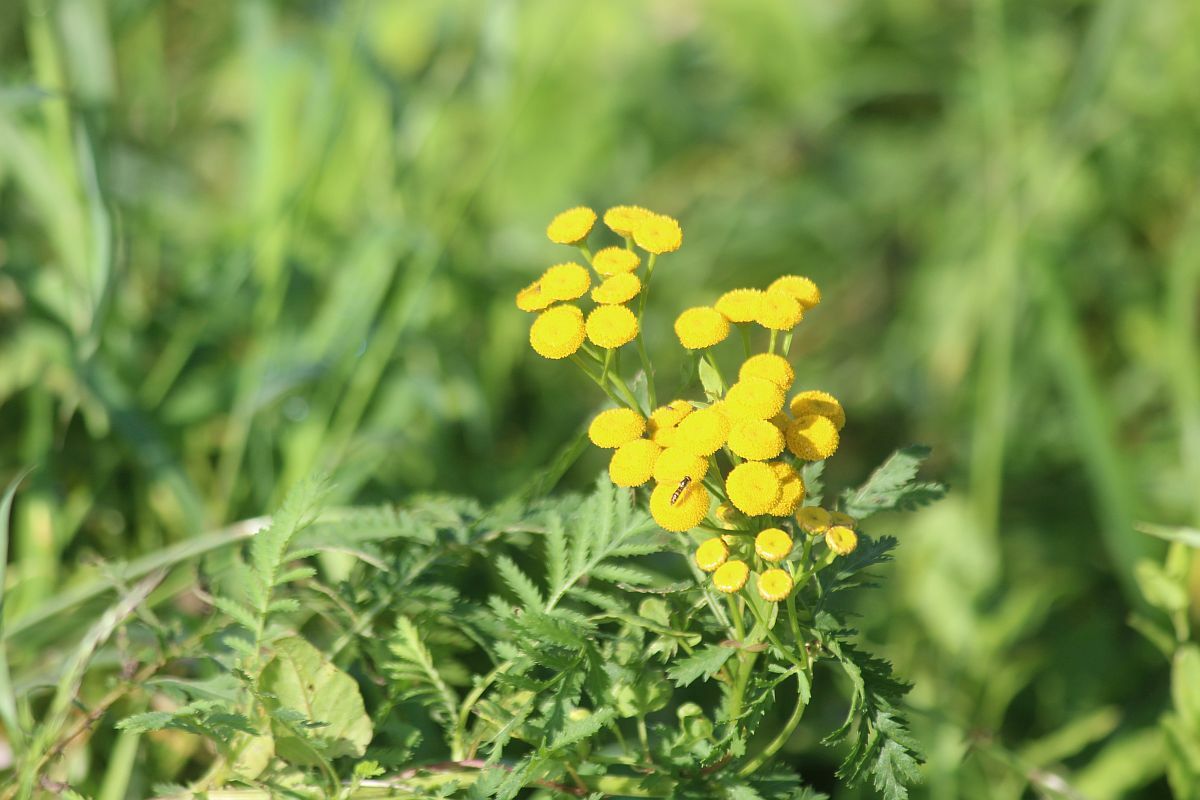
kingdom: Plantae
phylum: Tracheophyta
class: Magnoliopsida
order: Asterales
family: Asteraceae
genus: Tanacetum
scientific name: Tanacetum vulgare
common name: Common tansy
